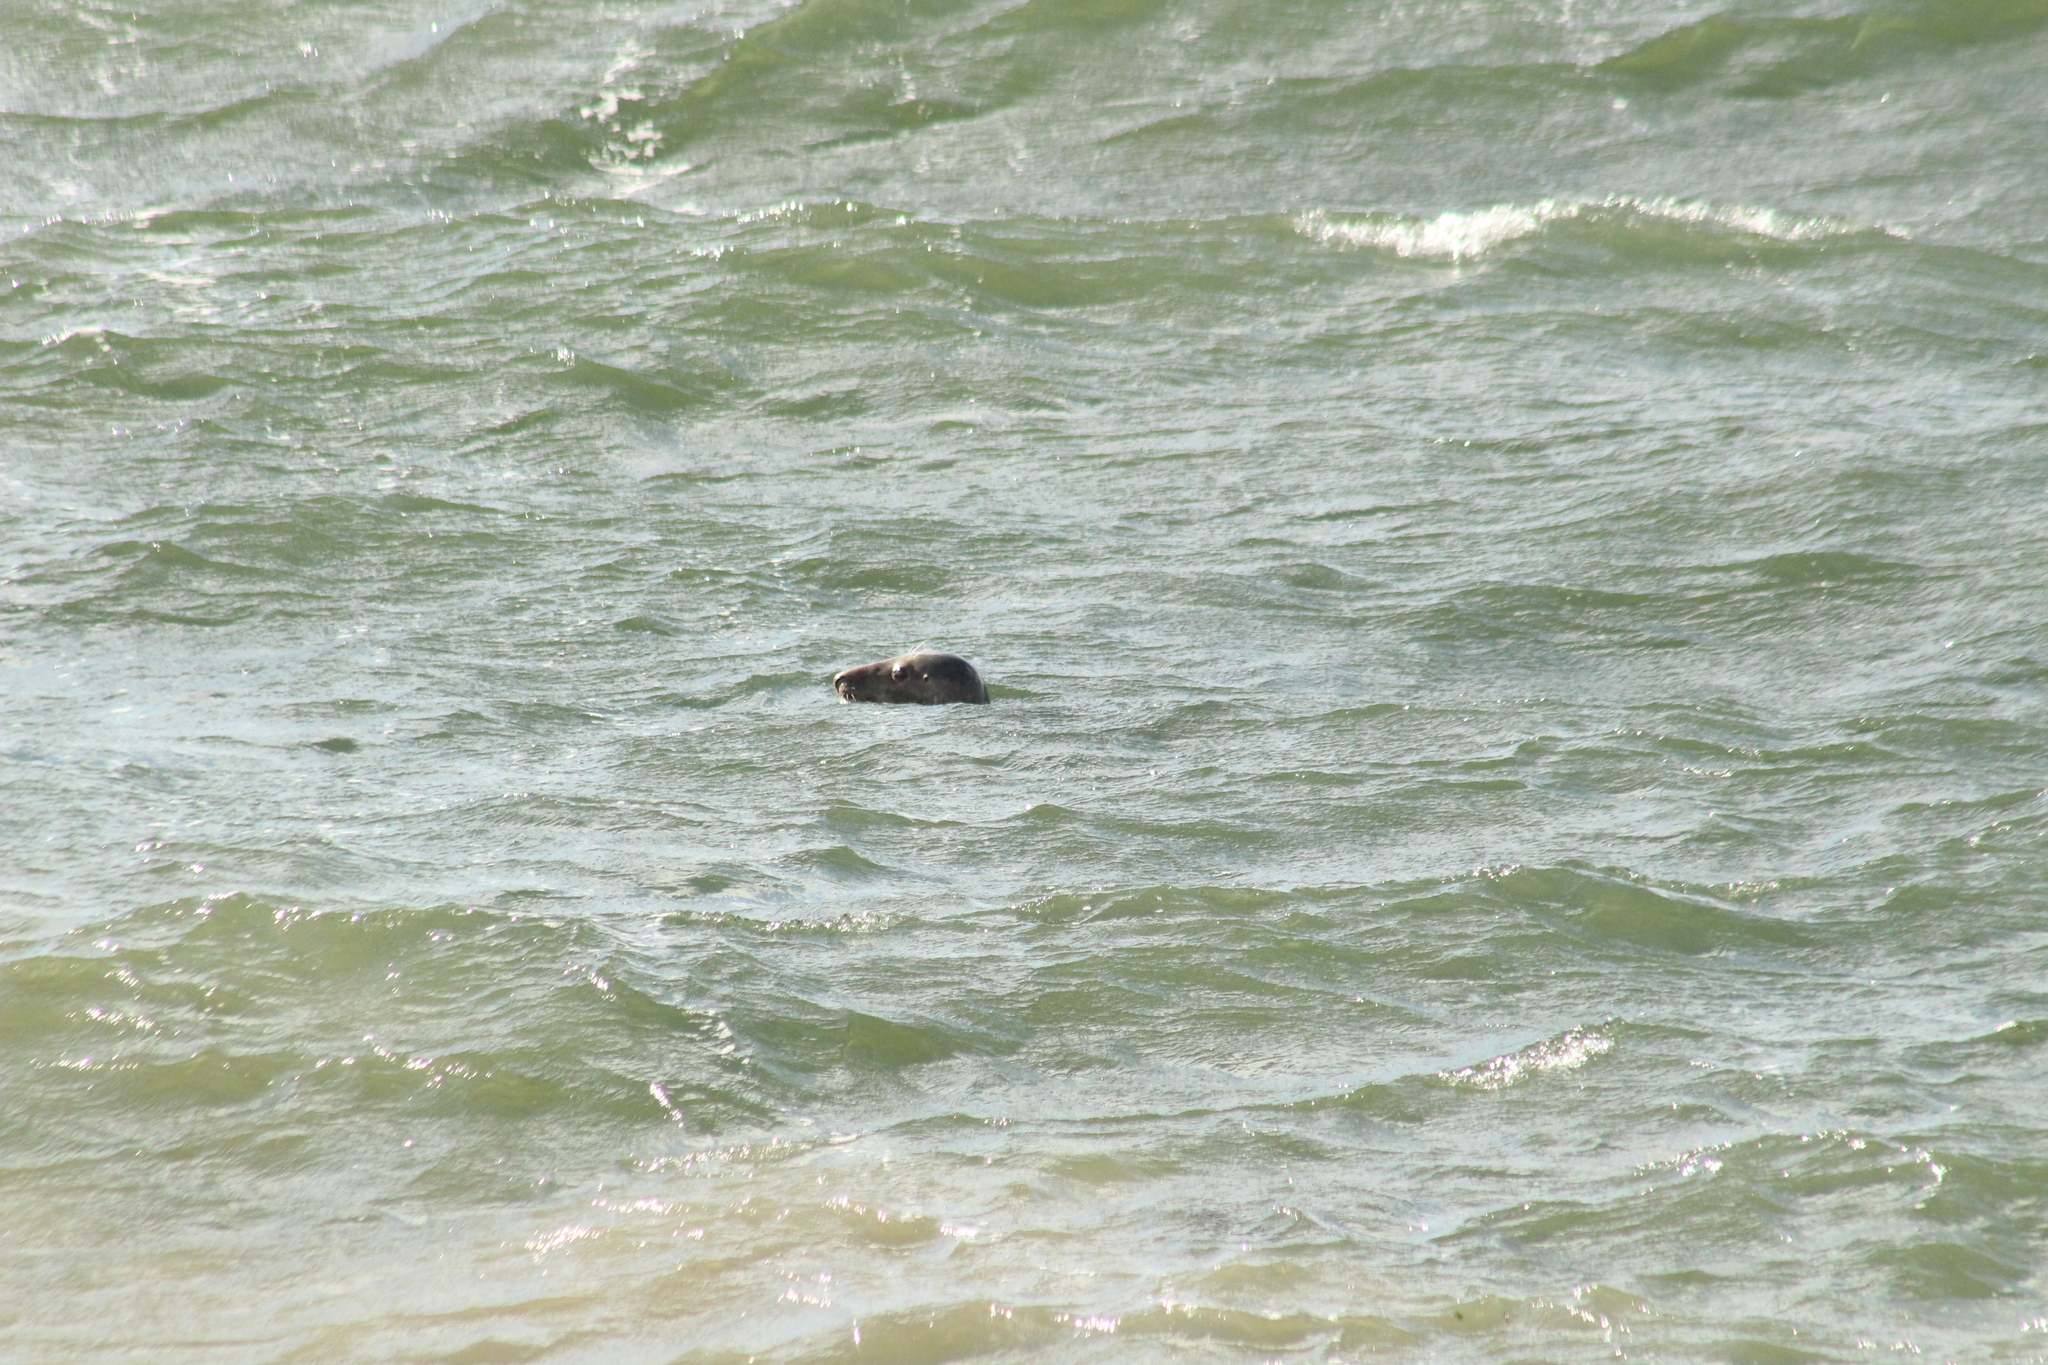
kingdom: Animalia
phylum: Chordata
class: Mammalia
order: Carnivora
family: Phocidae
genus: Halichoerus
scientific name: Halichoerus grypus
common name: Grey seal
